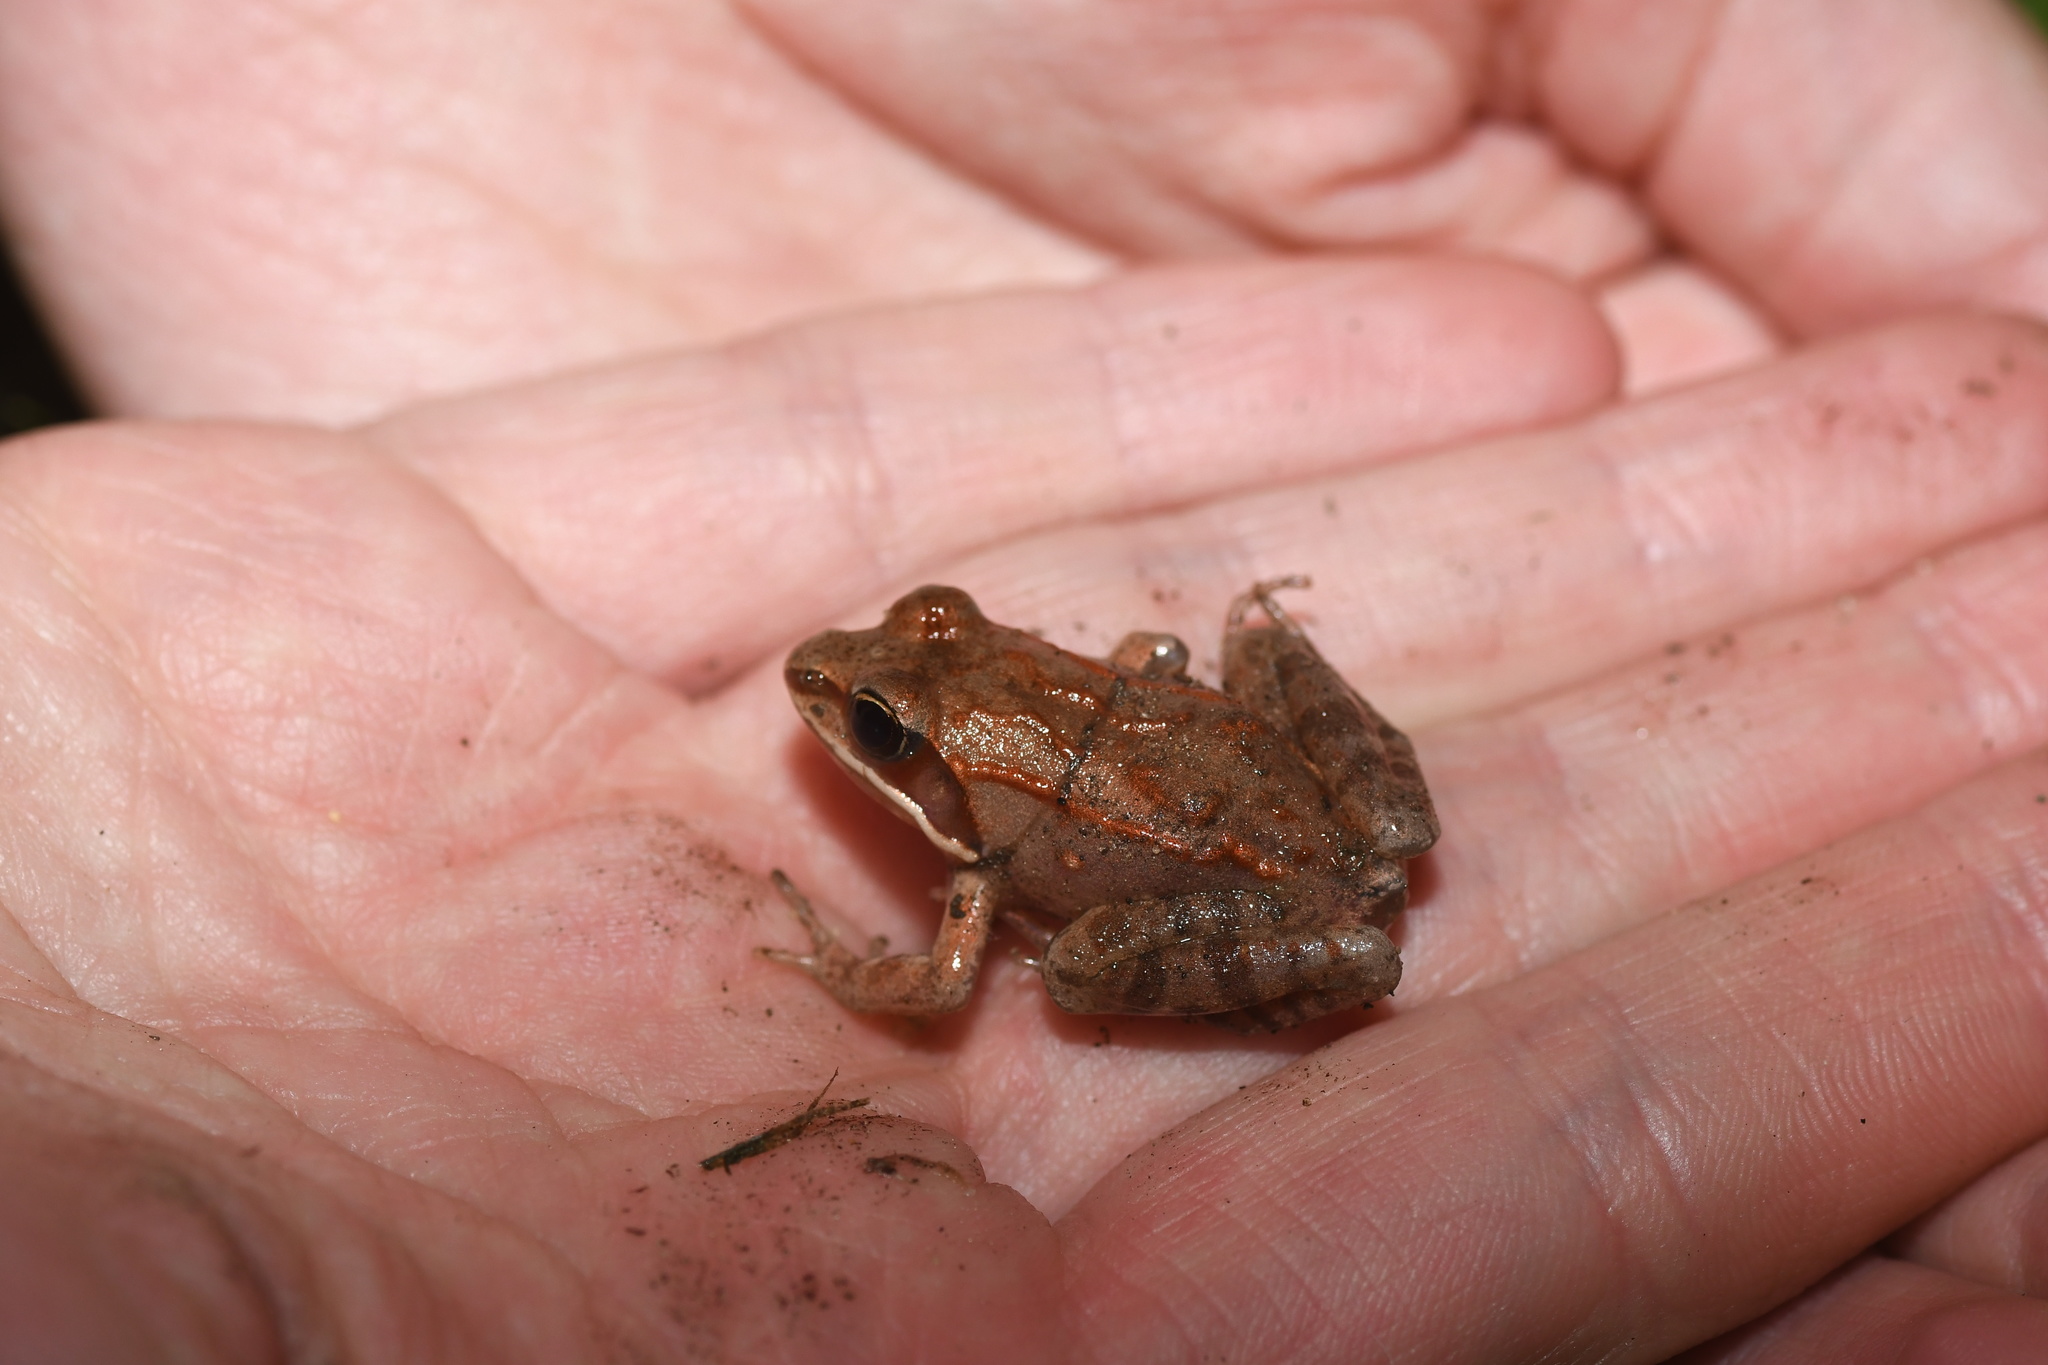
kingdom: Animalia
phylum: Chordata
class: Amphibia
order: Anura
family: Ranidae
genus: Lithobates
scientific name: Lithobates sylvaticus
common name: Wood frog
